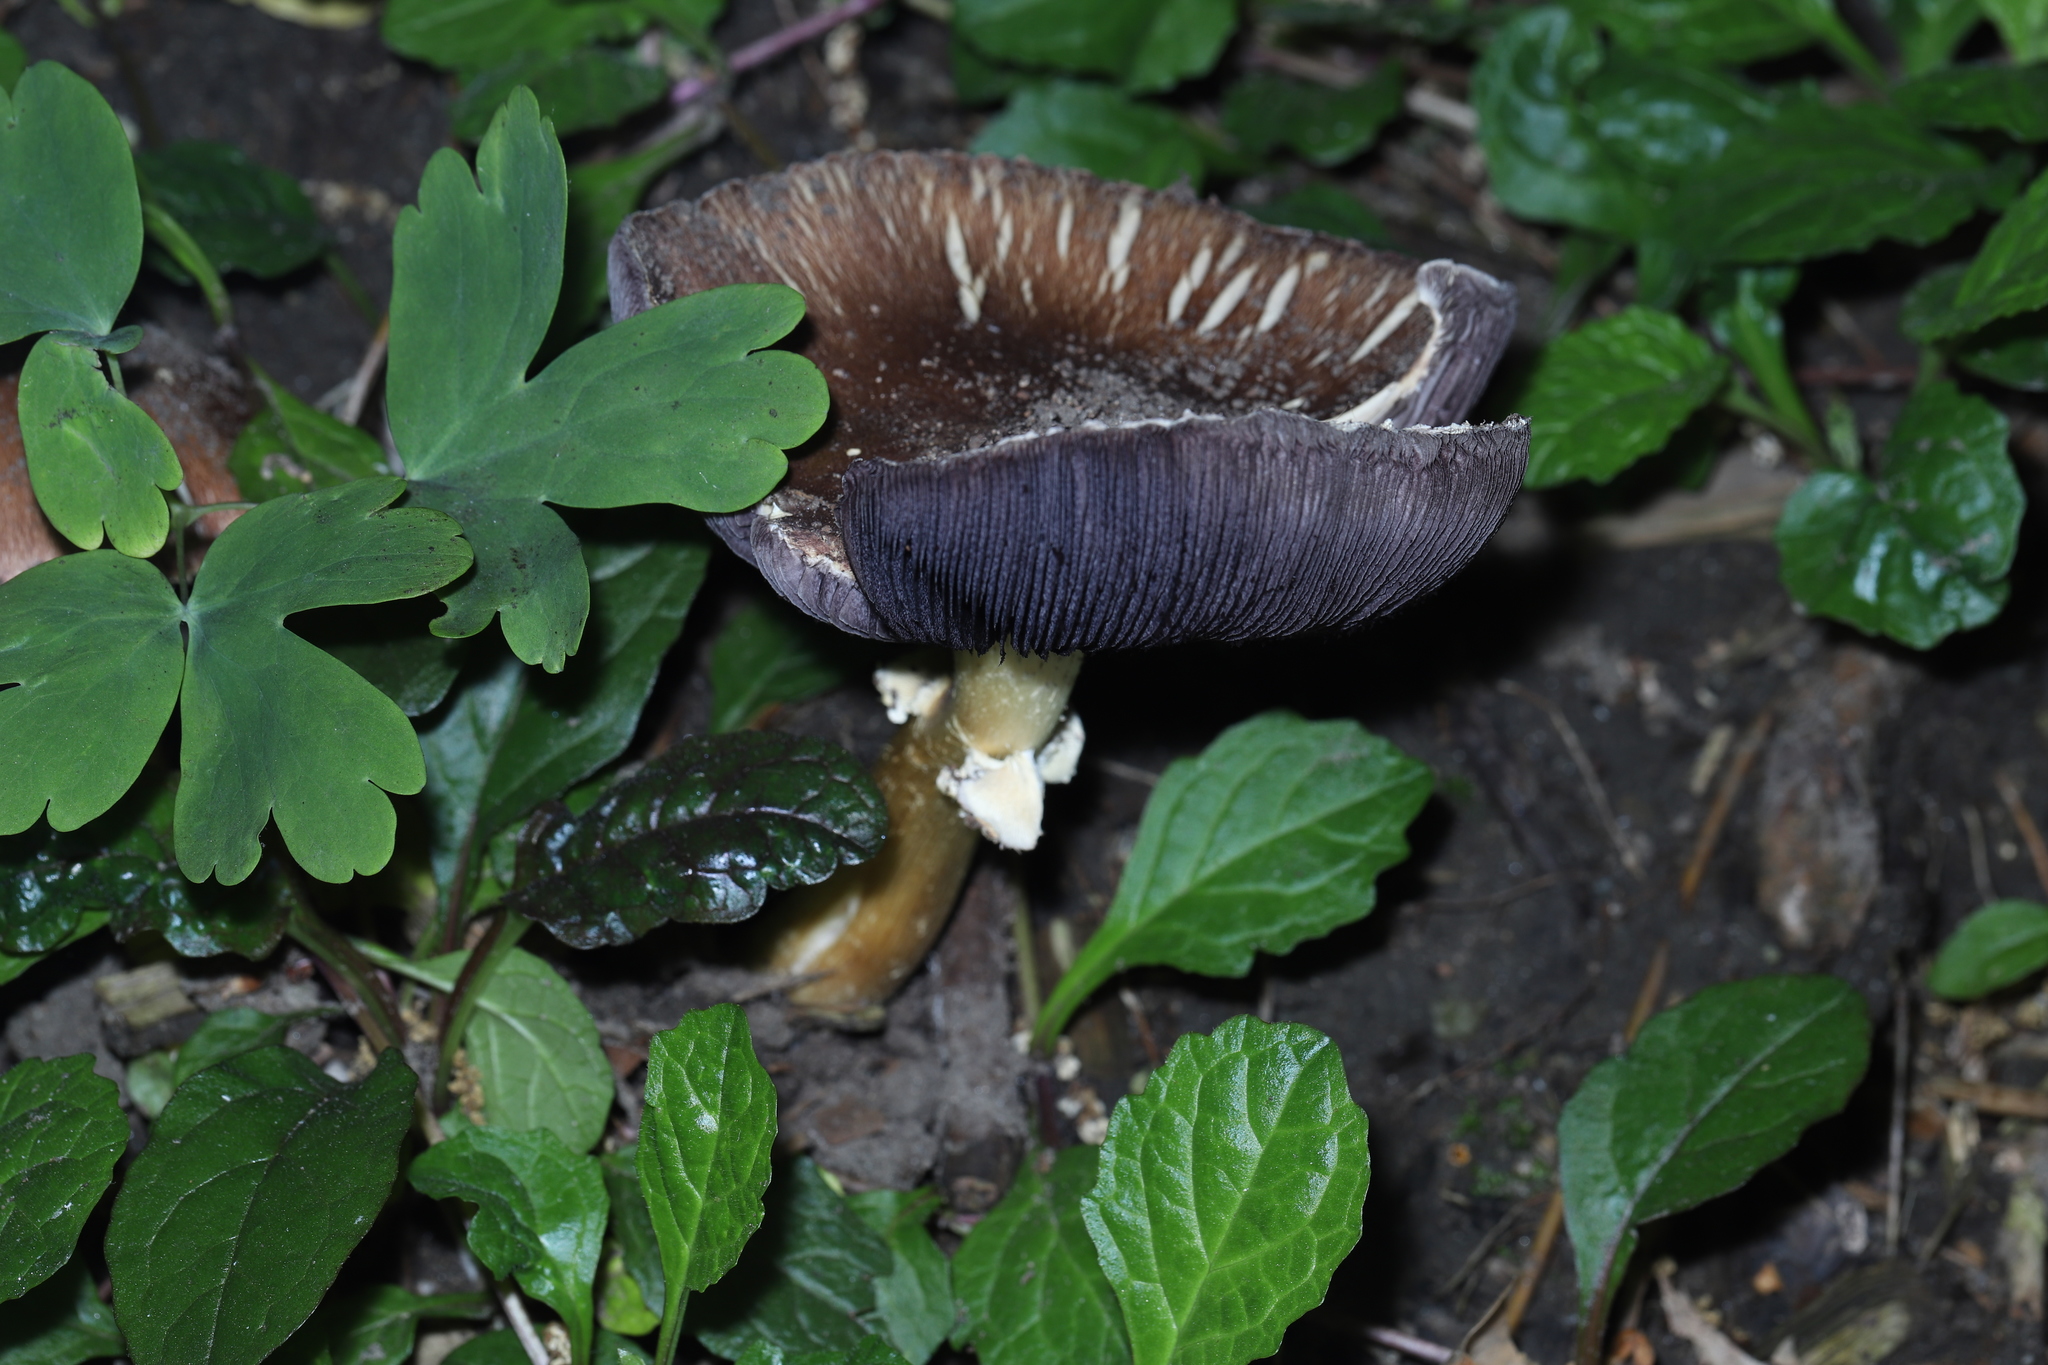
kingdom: Fungi
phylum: Basidiomycota
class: Agaricomycetes
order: Agaricales
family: Strophariaceae
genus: Stropharia
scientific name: Stropharia rugosoannulata
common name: Wine roundhead
